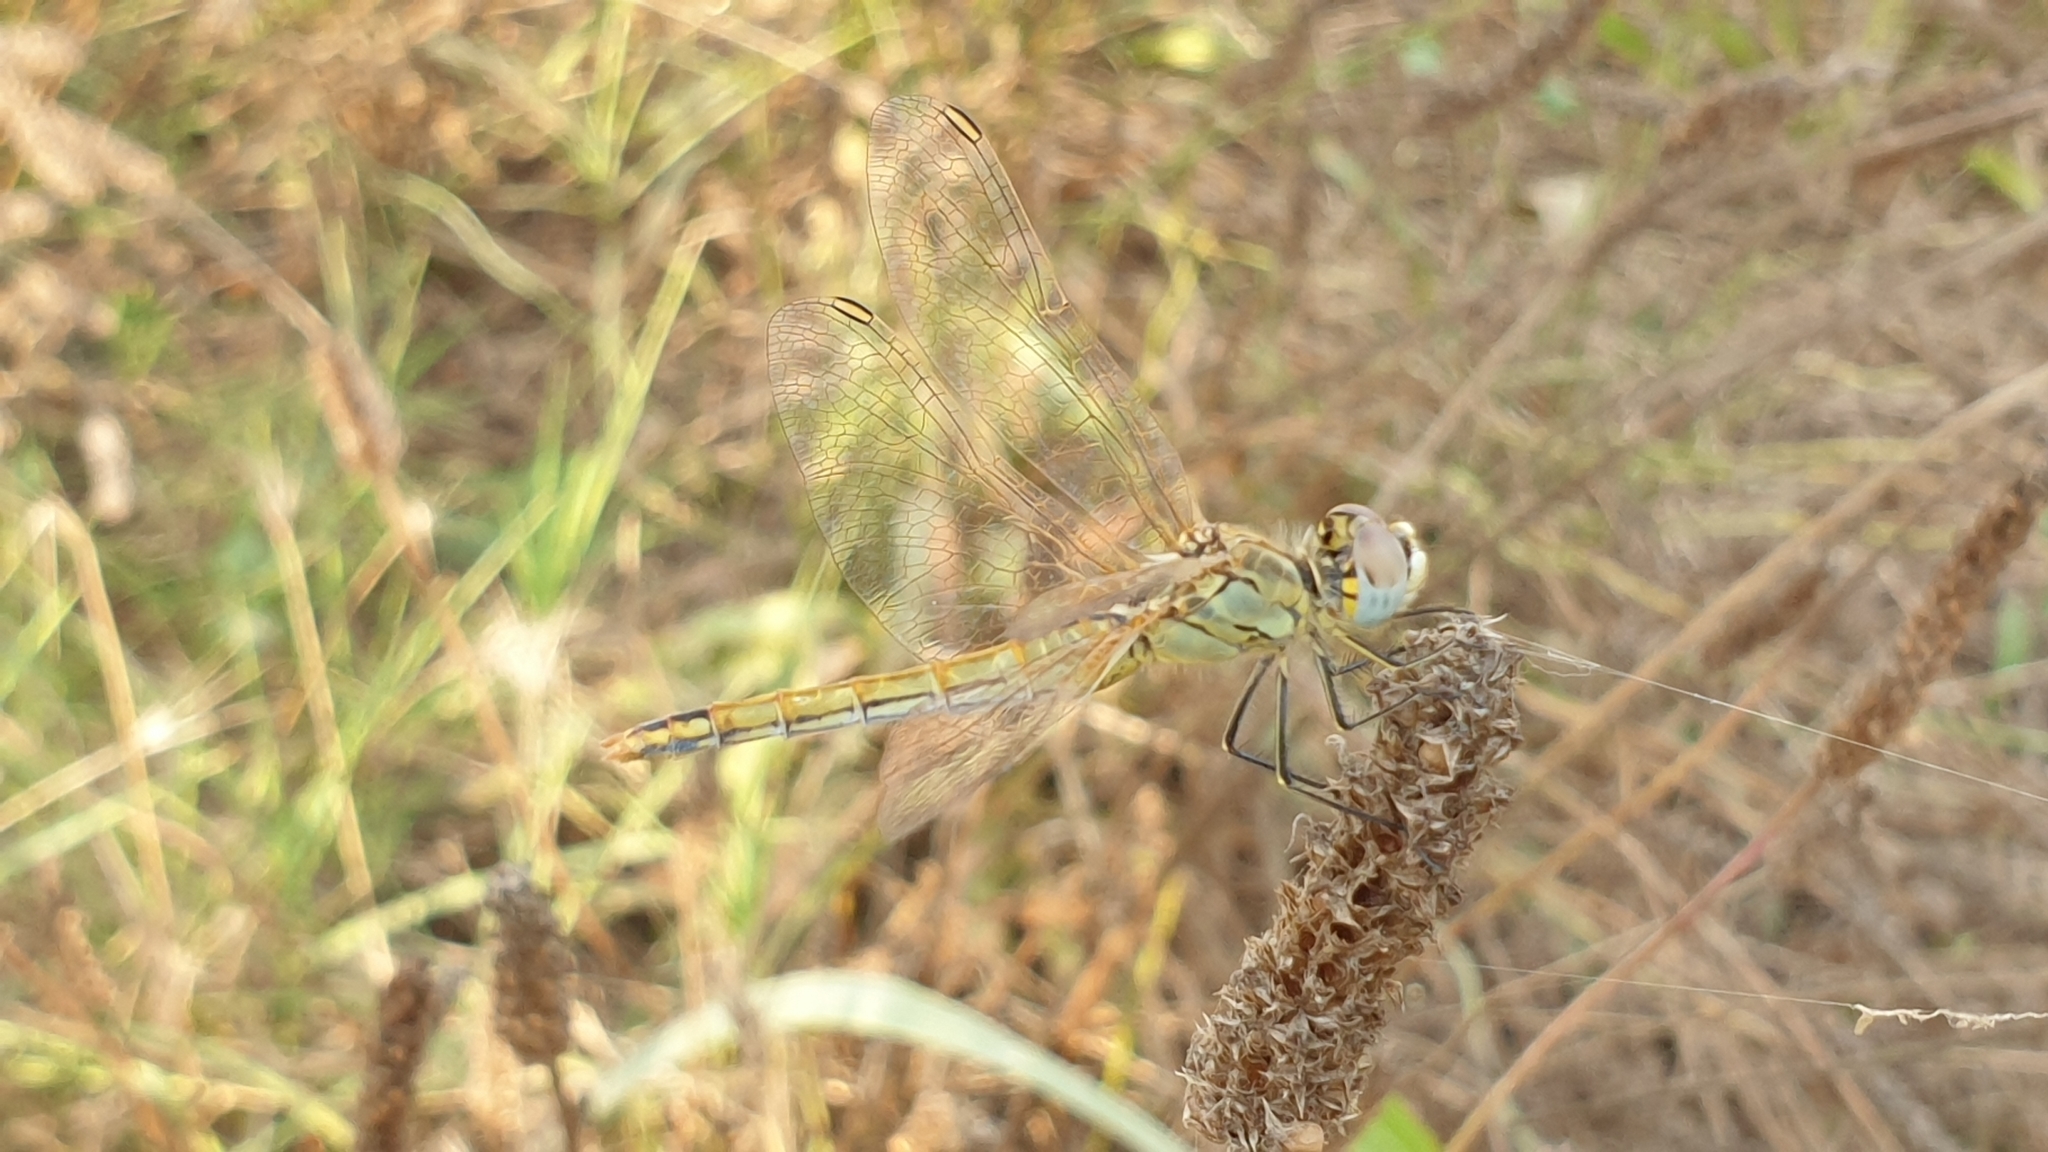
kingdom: Animalia
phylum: Arthropoda
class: Insecta
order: Odonata
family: Libellulidae
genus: Sympetrum
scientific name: Sympetrum fonscolombii
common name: Red-veined darter
